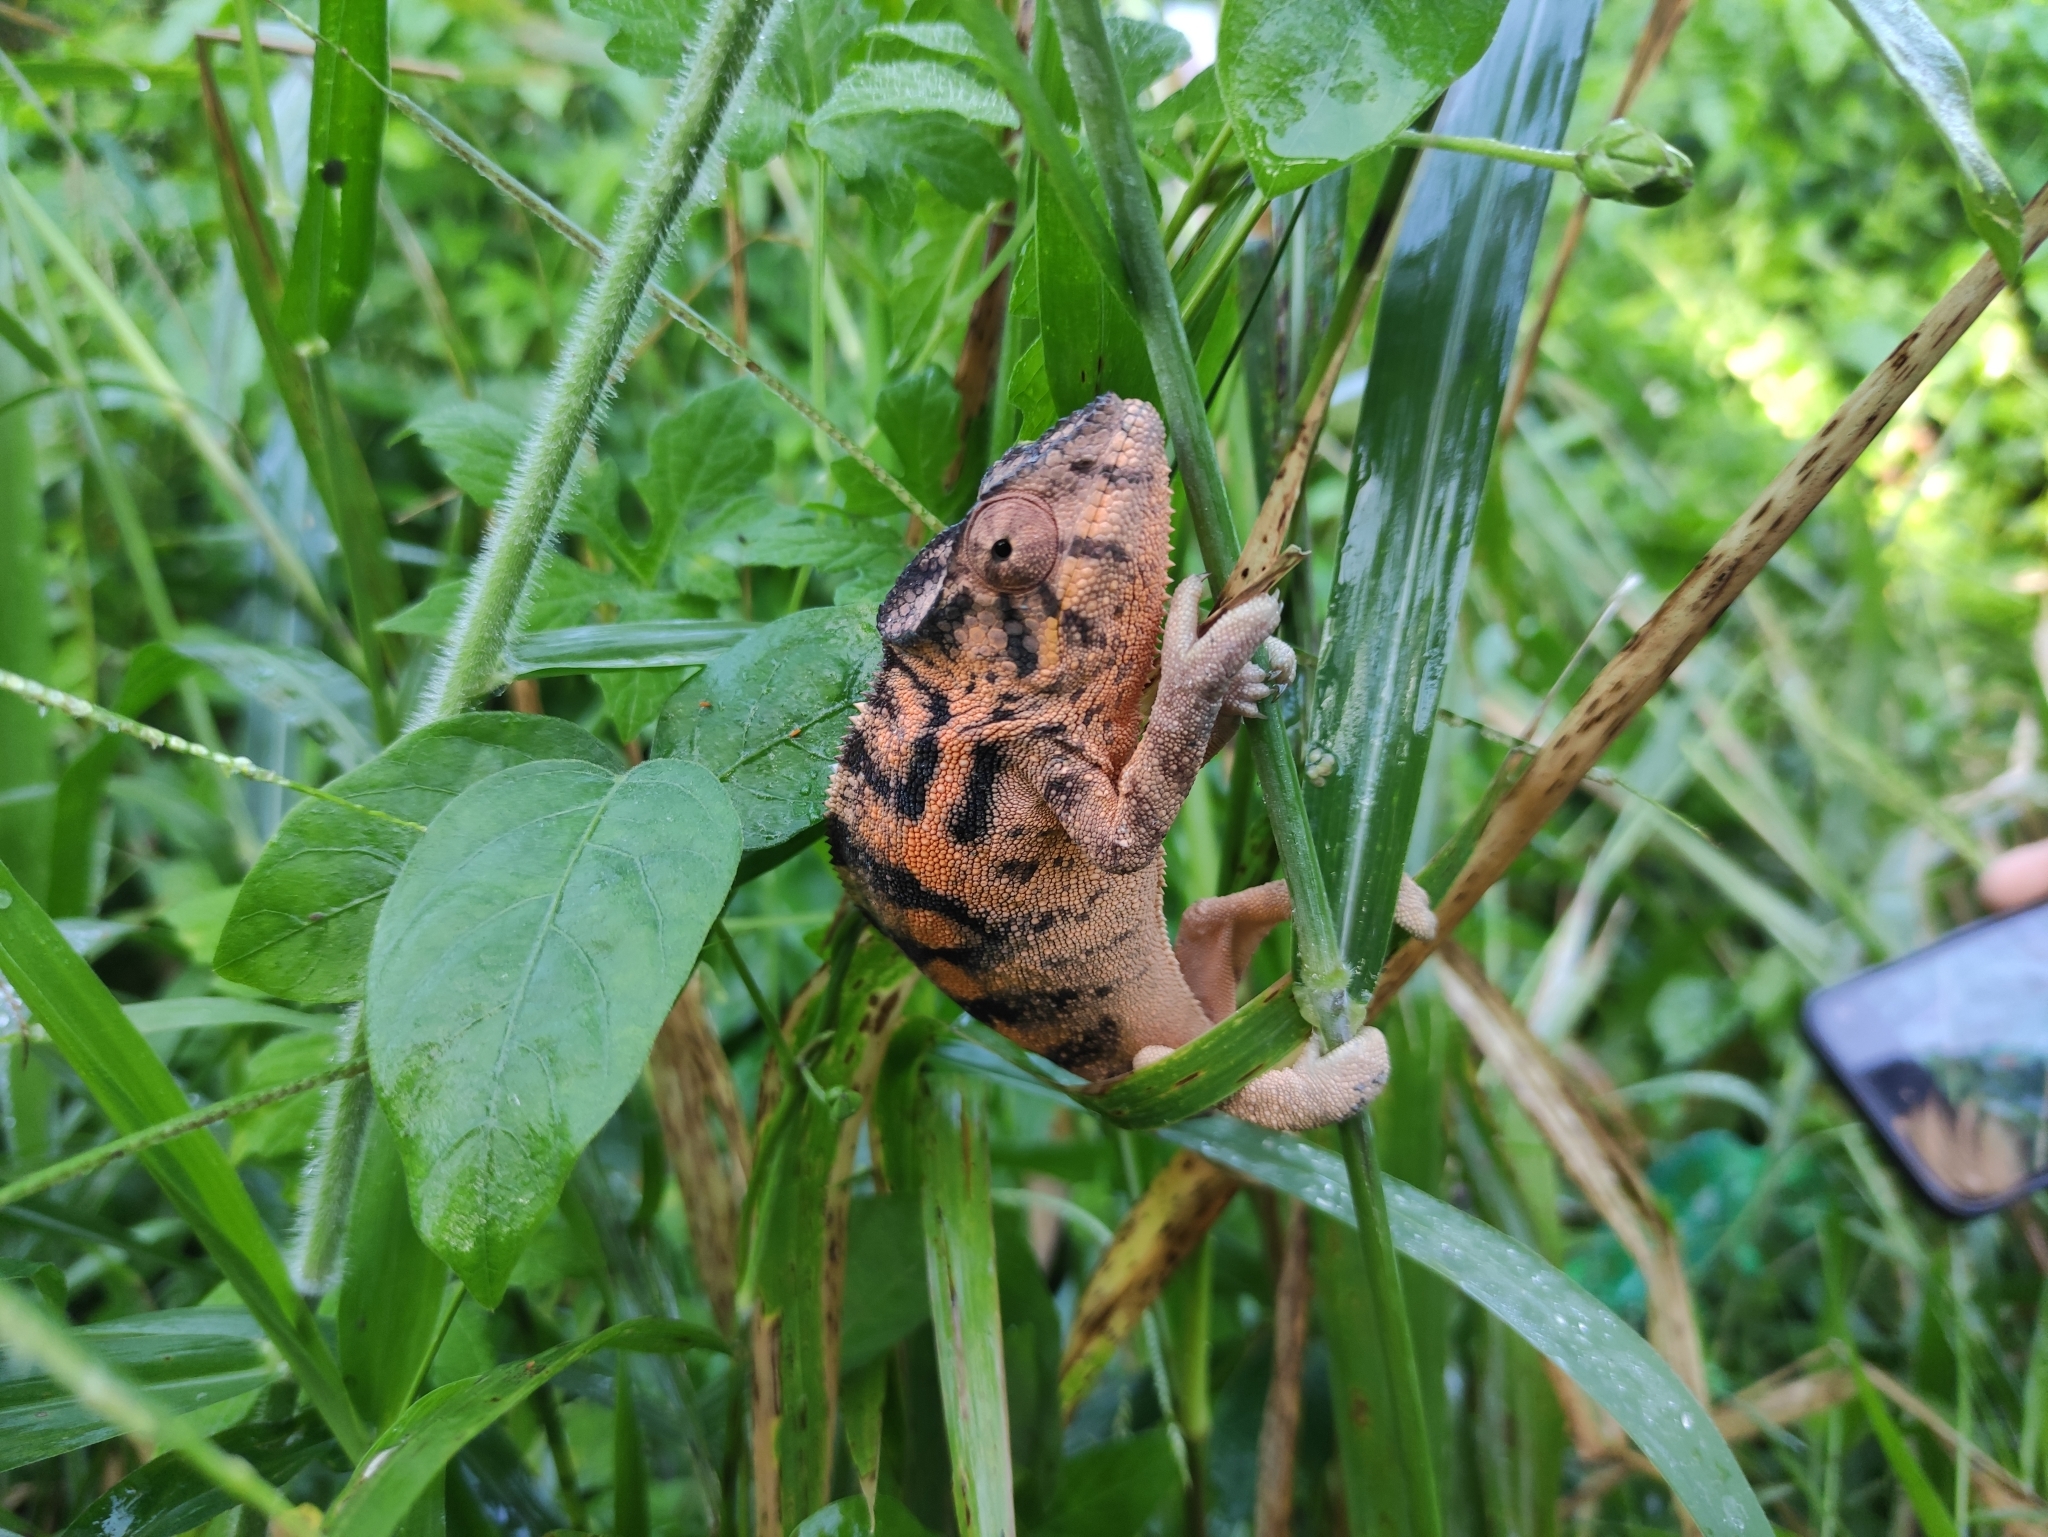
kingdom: Animalia
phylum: Chordata
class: Squamata
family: Chamaeleonidae
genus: Furcifer
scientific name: Furcifer pardalis
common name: Panther chameleon
